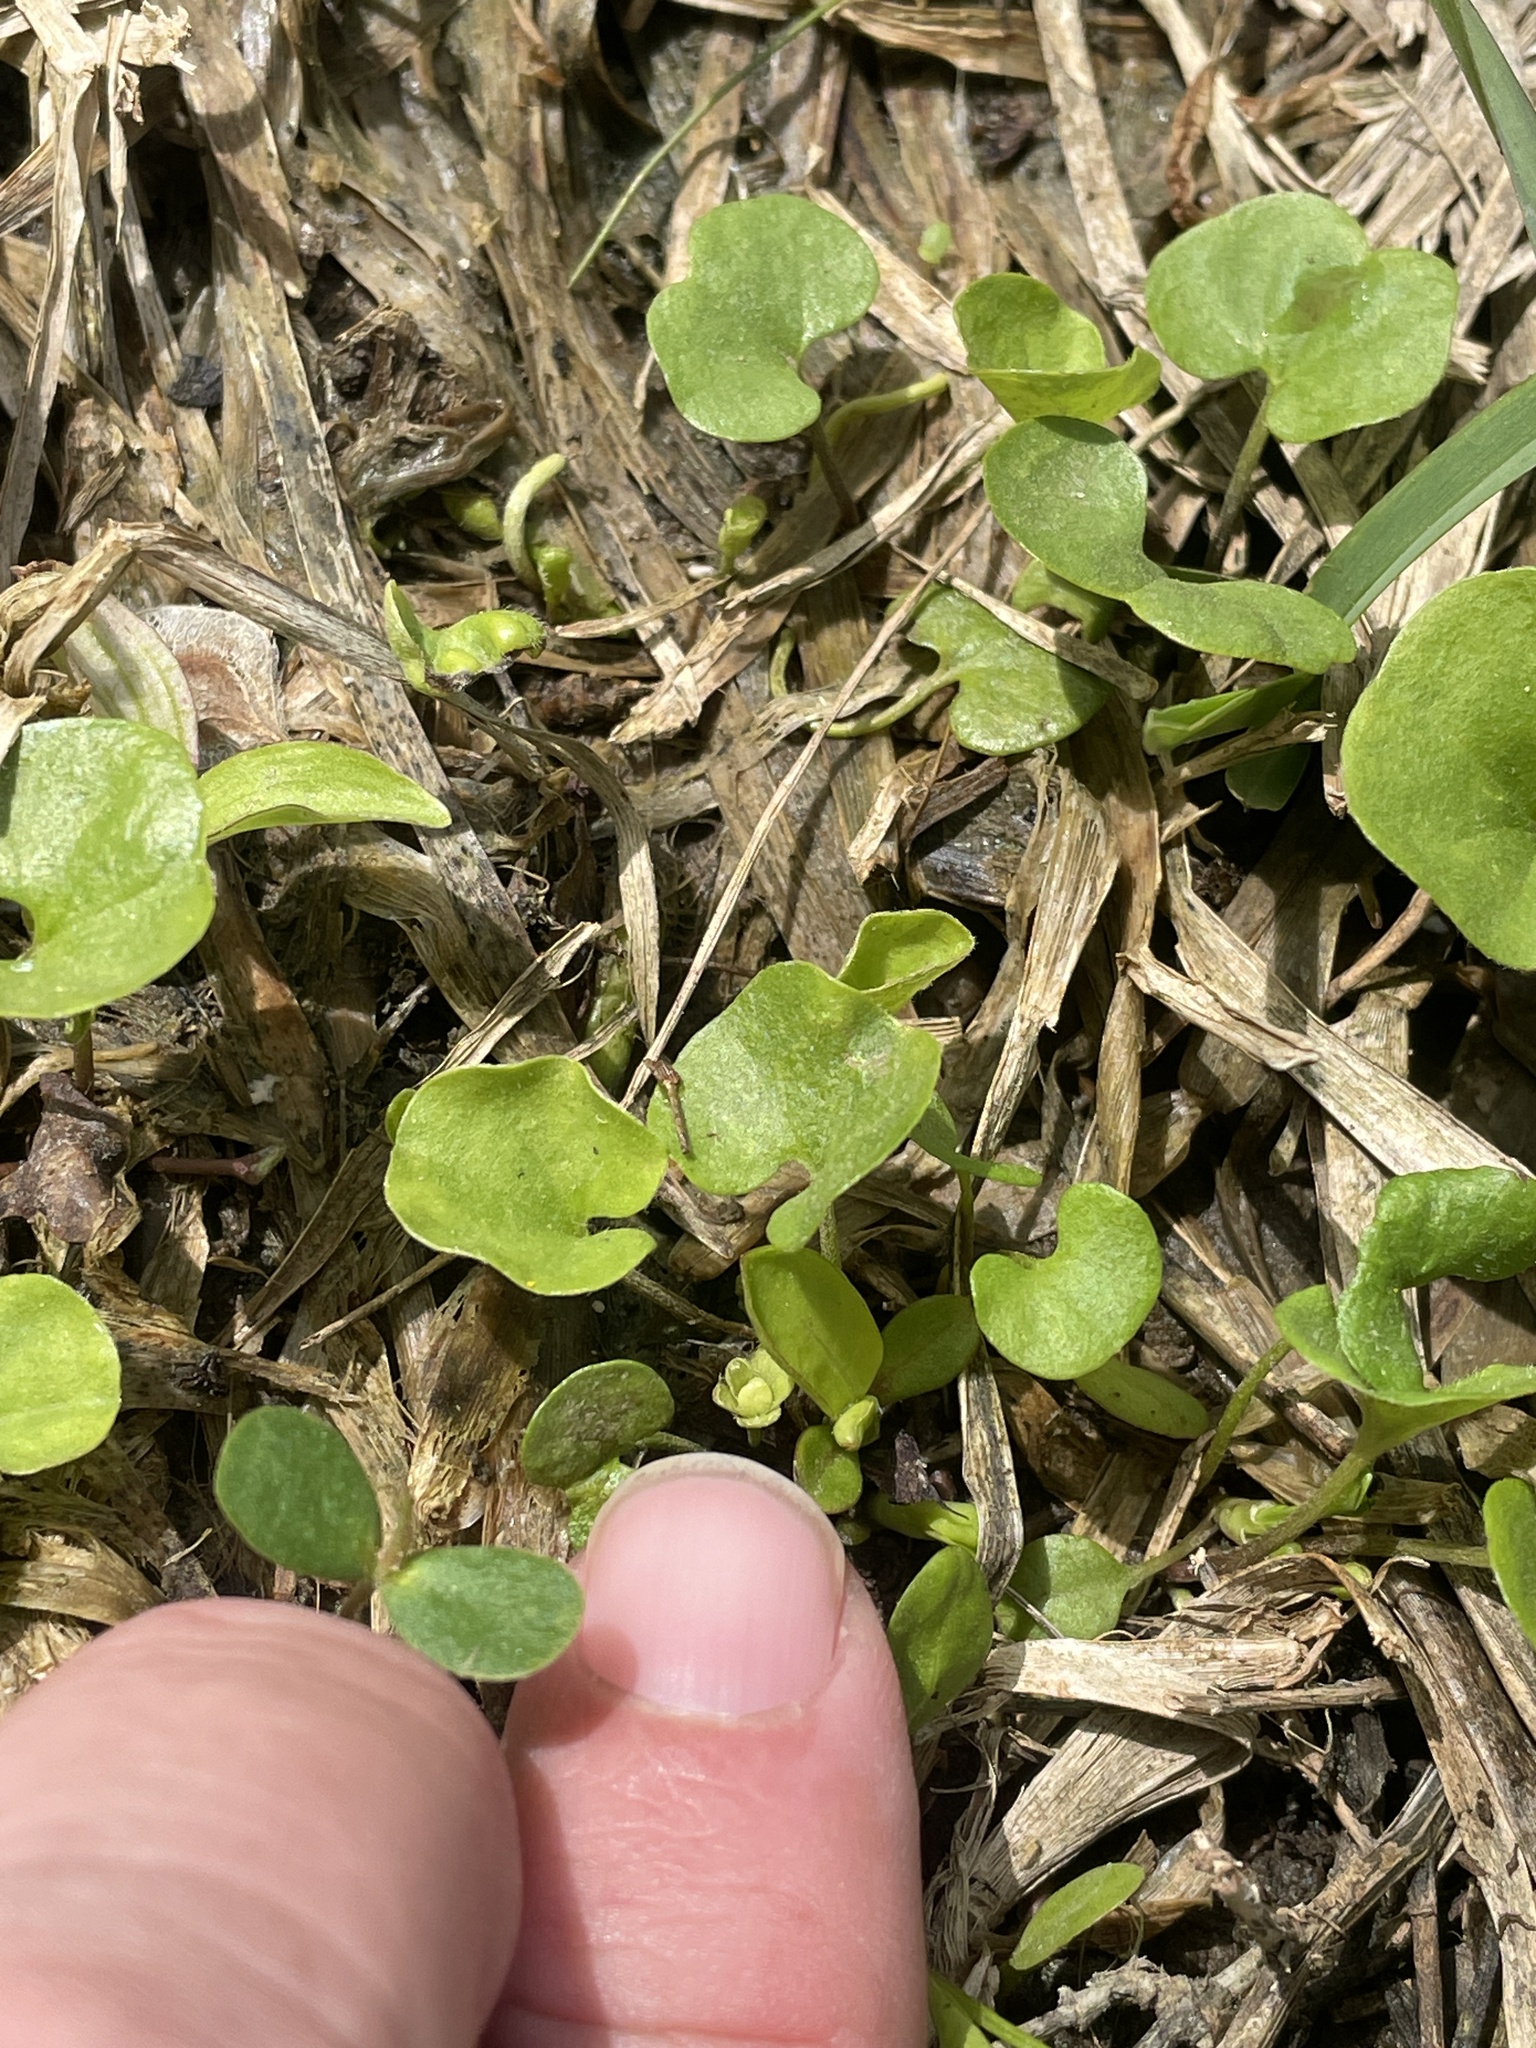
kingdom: Plantae
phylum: Tracheophyta
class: Magnoliopsida
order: Solanales
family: Convolvulaceae
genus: Dichondra
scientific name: Dichondra carolinensis
